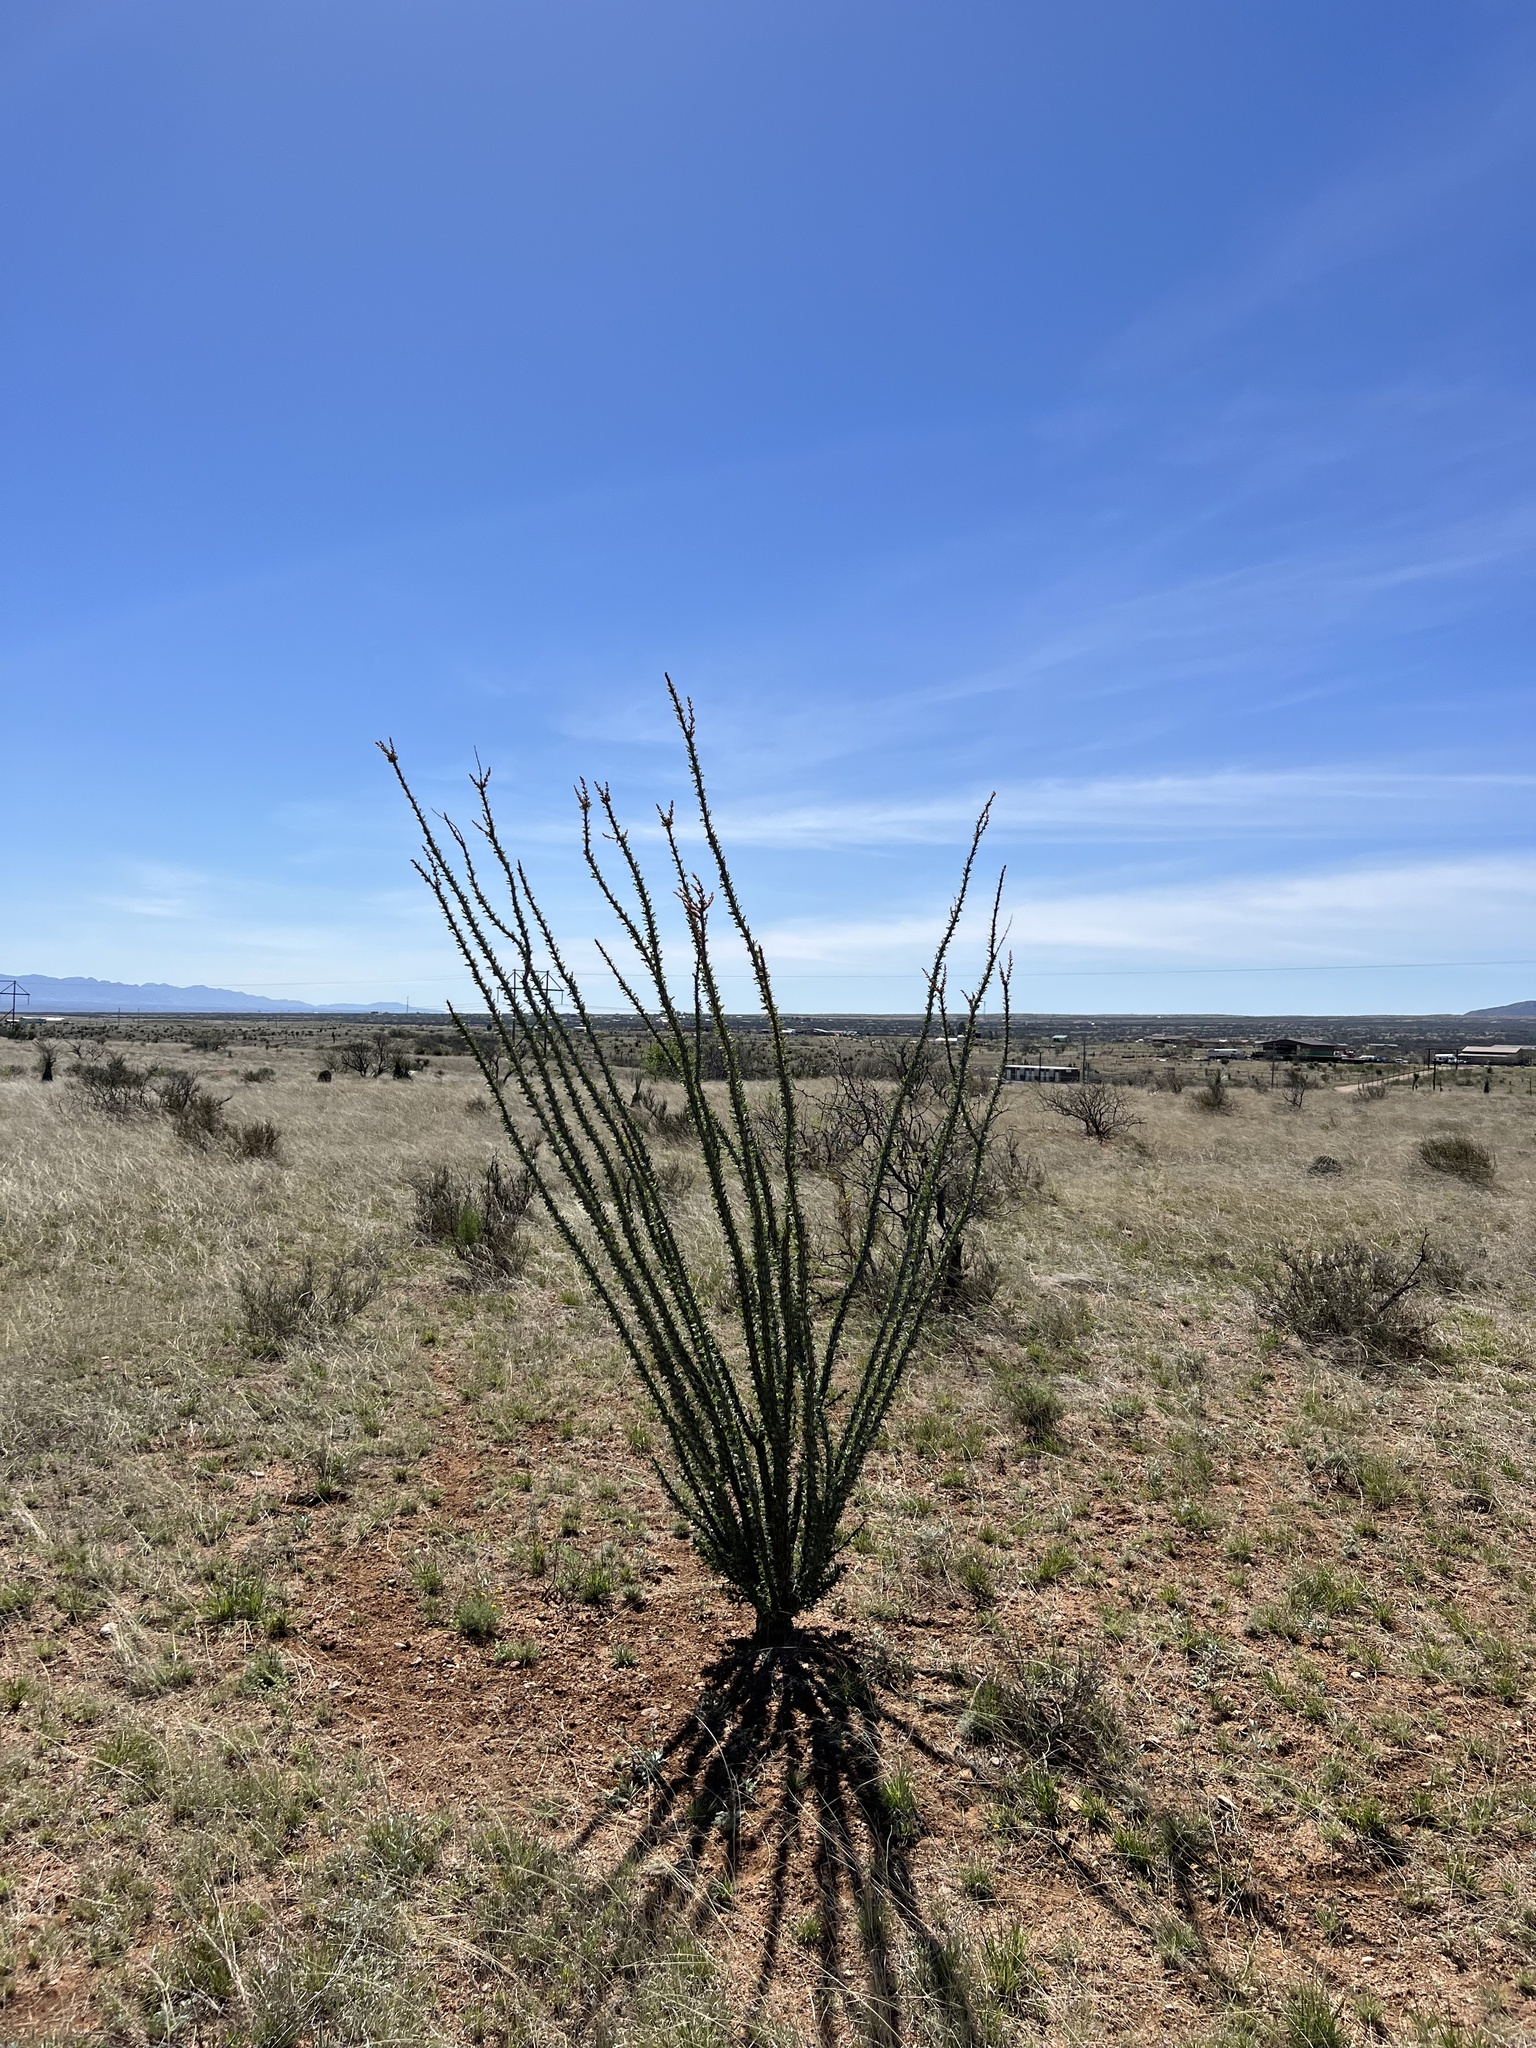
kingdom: Plantae
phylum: Tracheophyta
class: Magnoliopsida
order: Ericales
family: Fouquieriaceae
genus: Fouquieria
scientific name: Fouquieria splendens
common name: Vine-cactus
